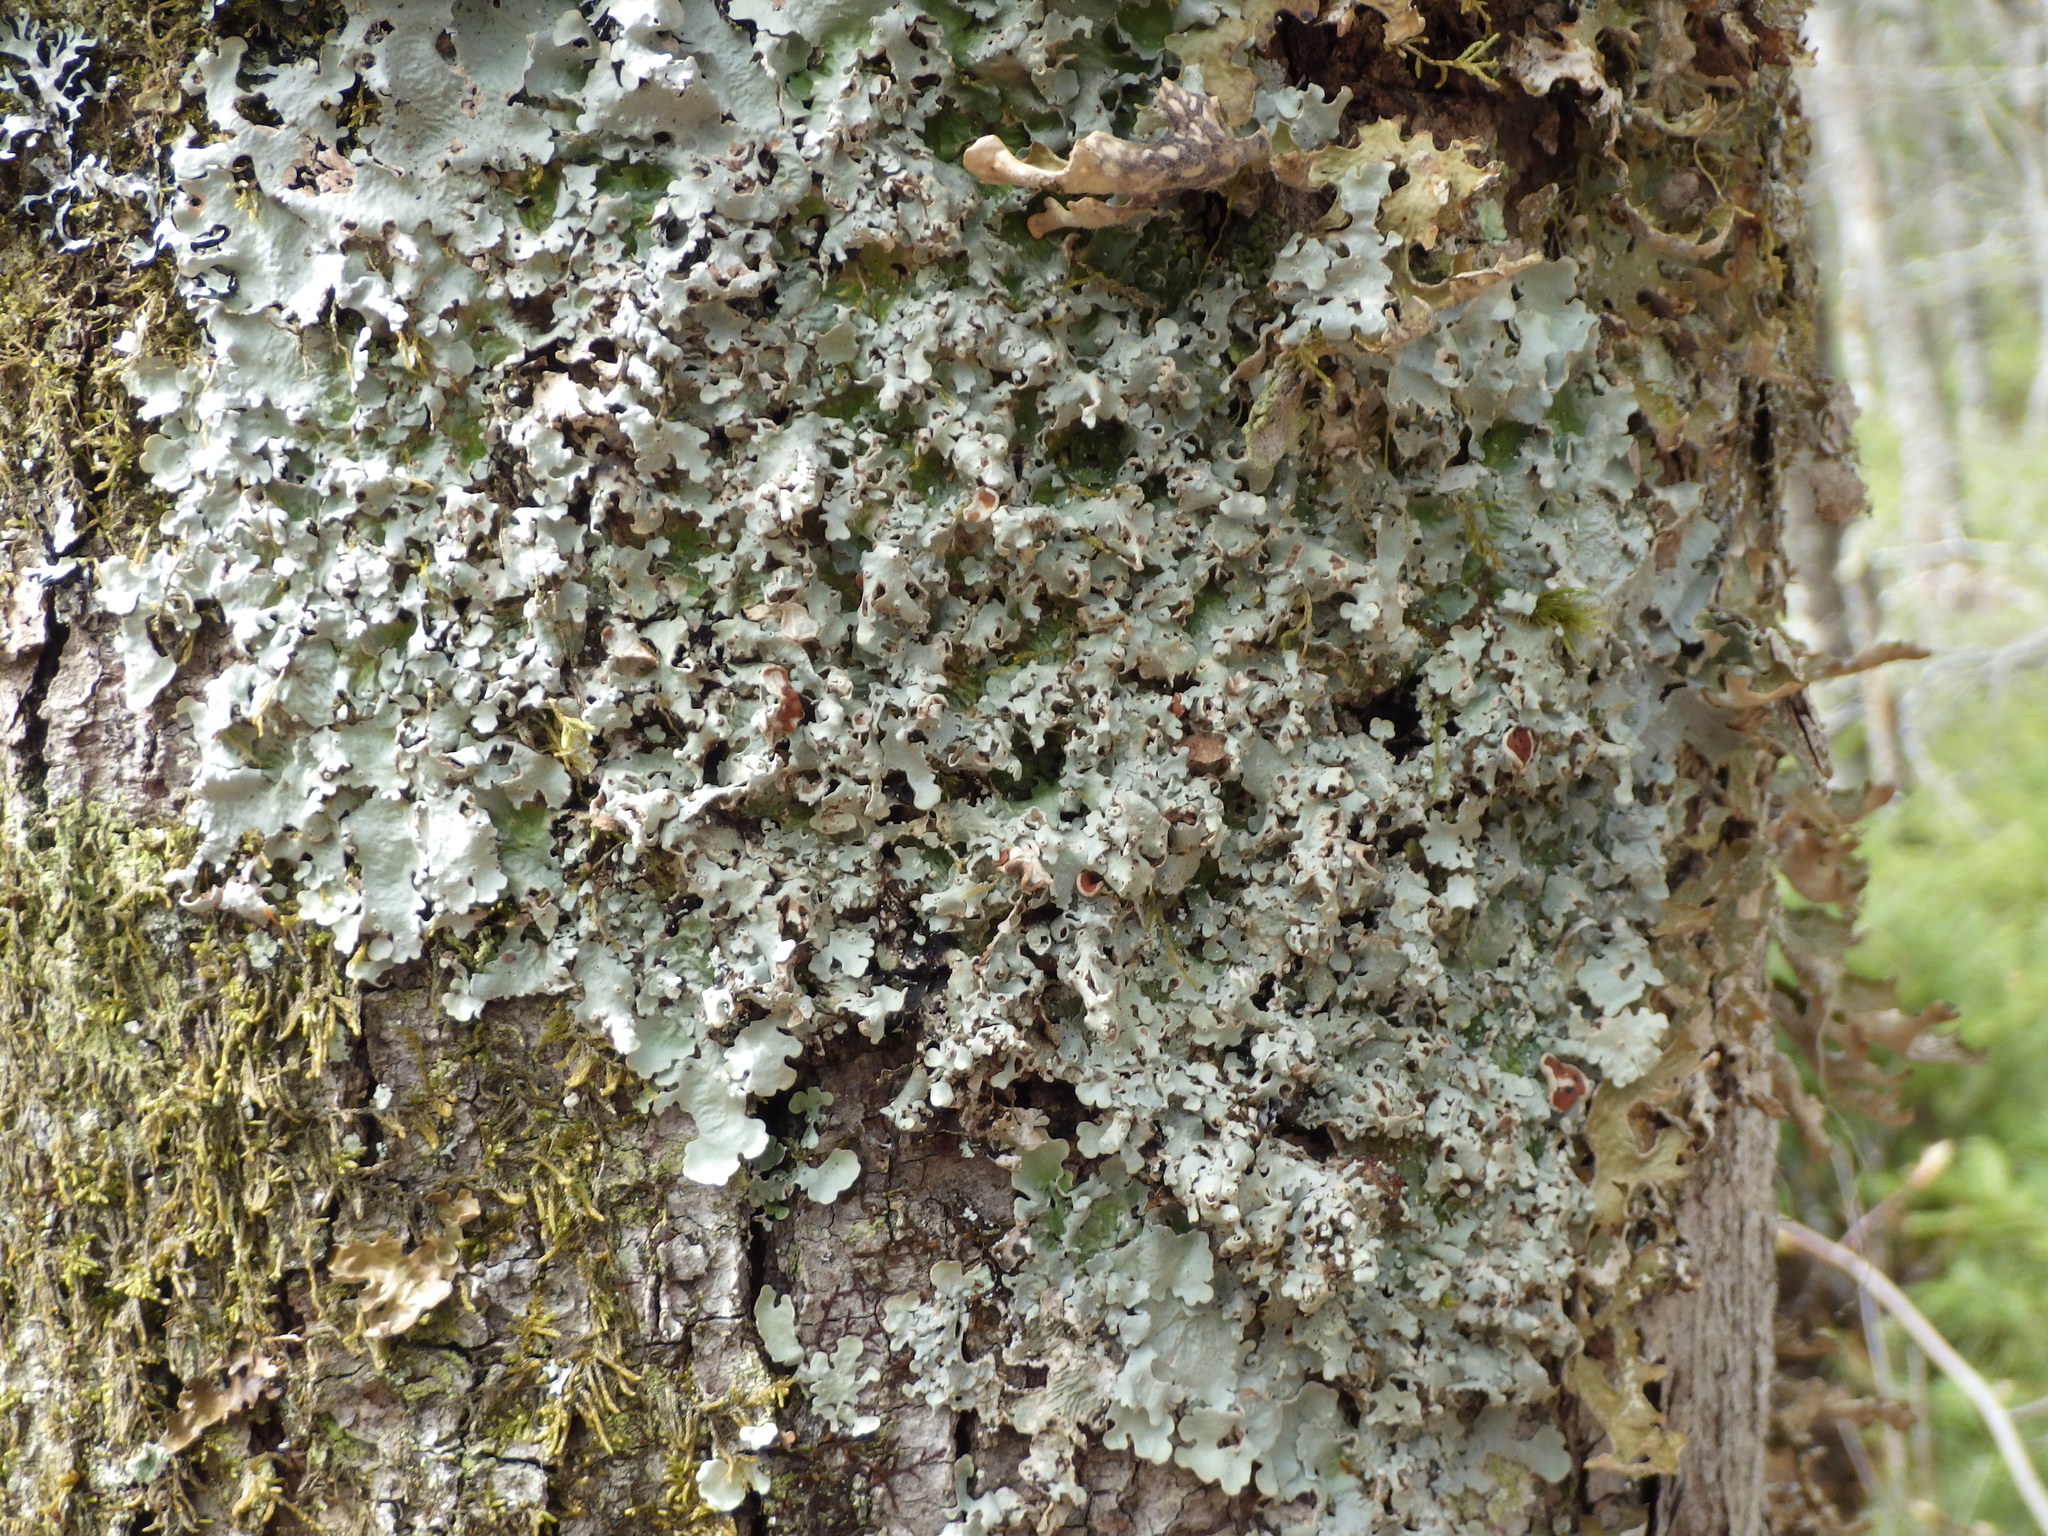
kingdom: Fungi
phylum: Ascomycota
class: Lecanoromycetes
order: Peltigerales
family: Lobariaceae
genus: Ricasolia
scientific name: Ricasolia quercizans
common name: Smooth lungwort
